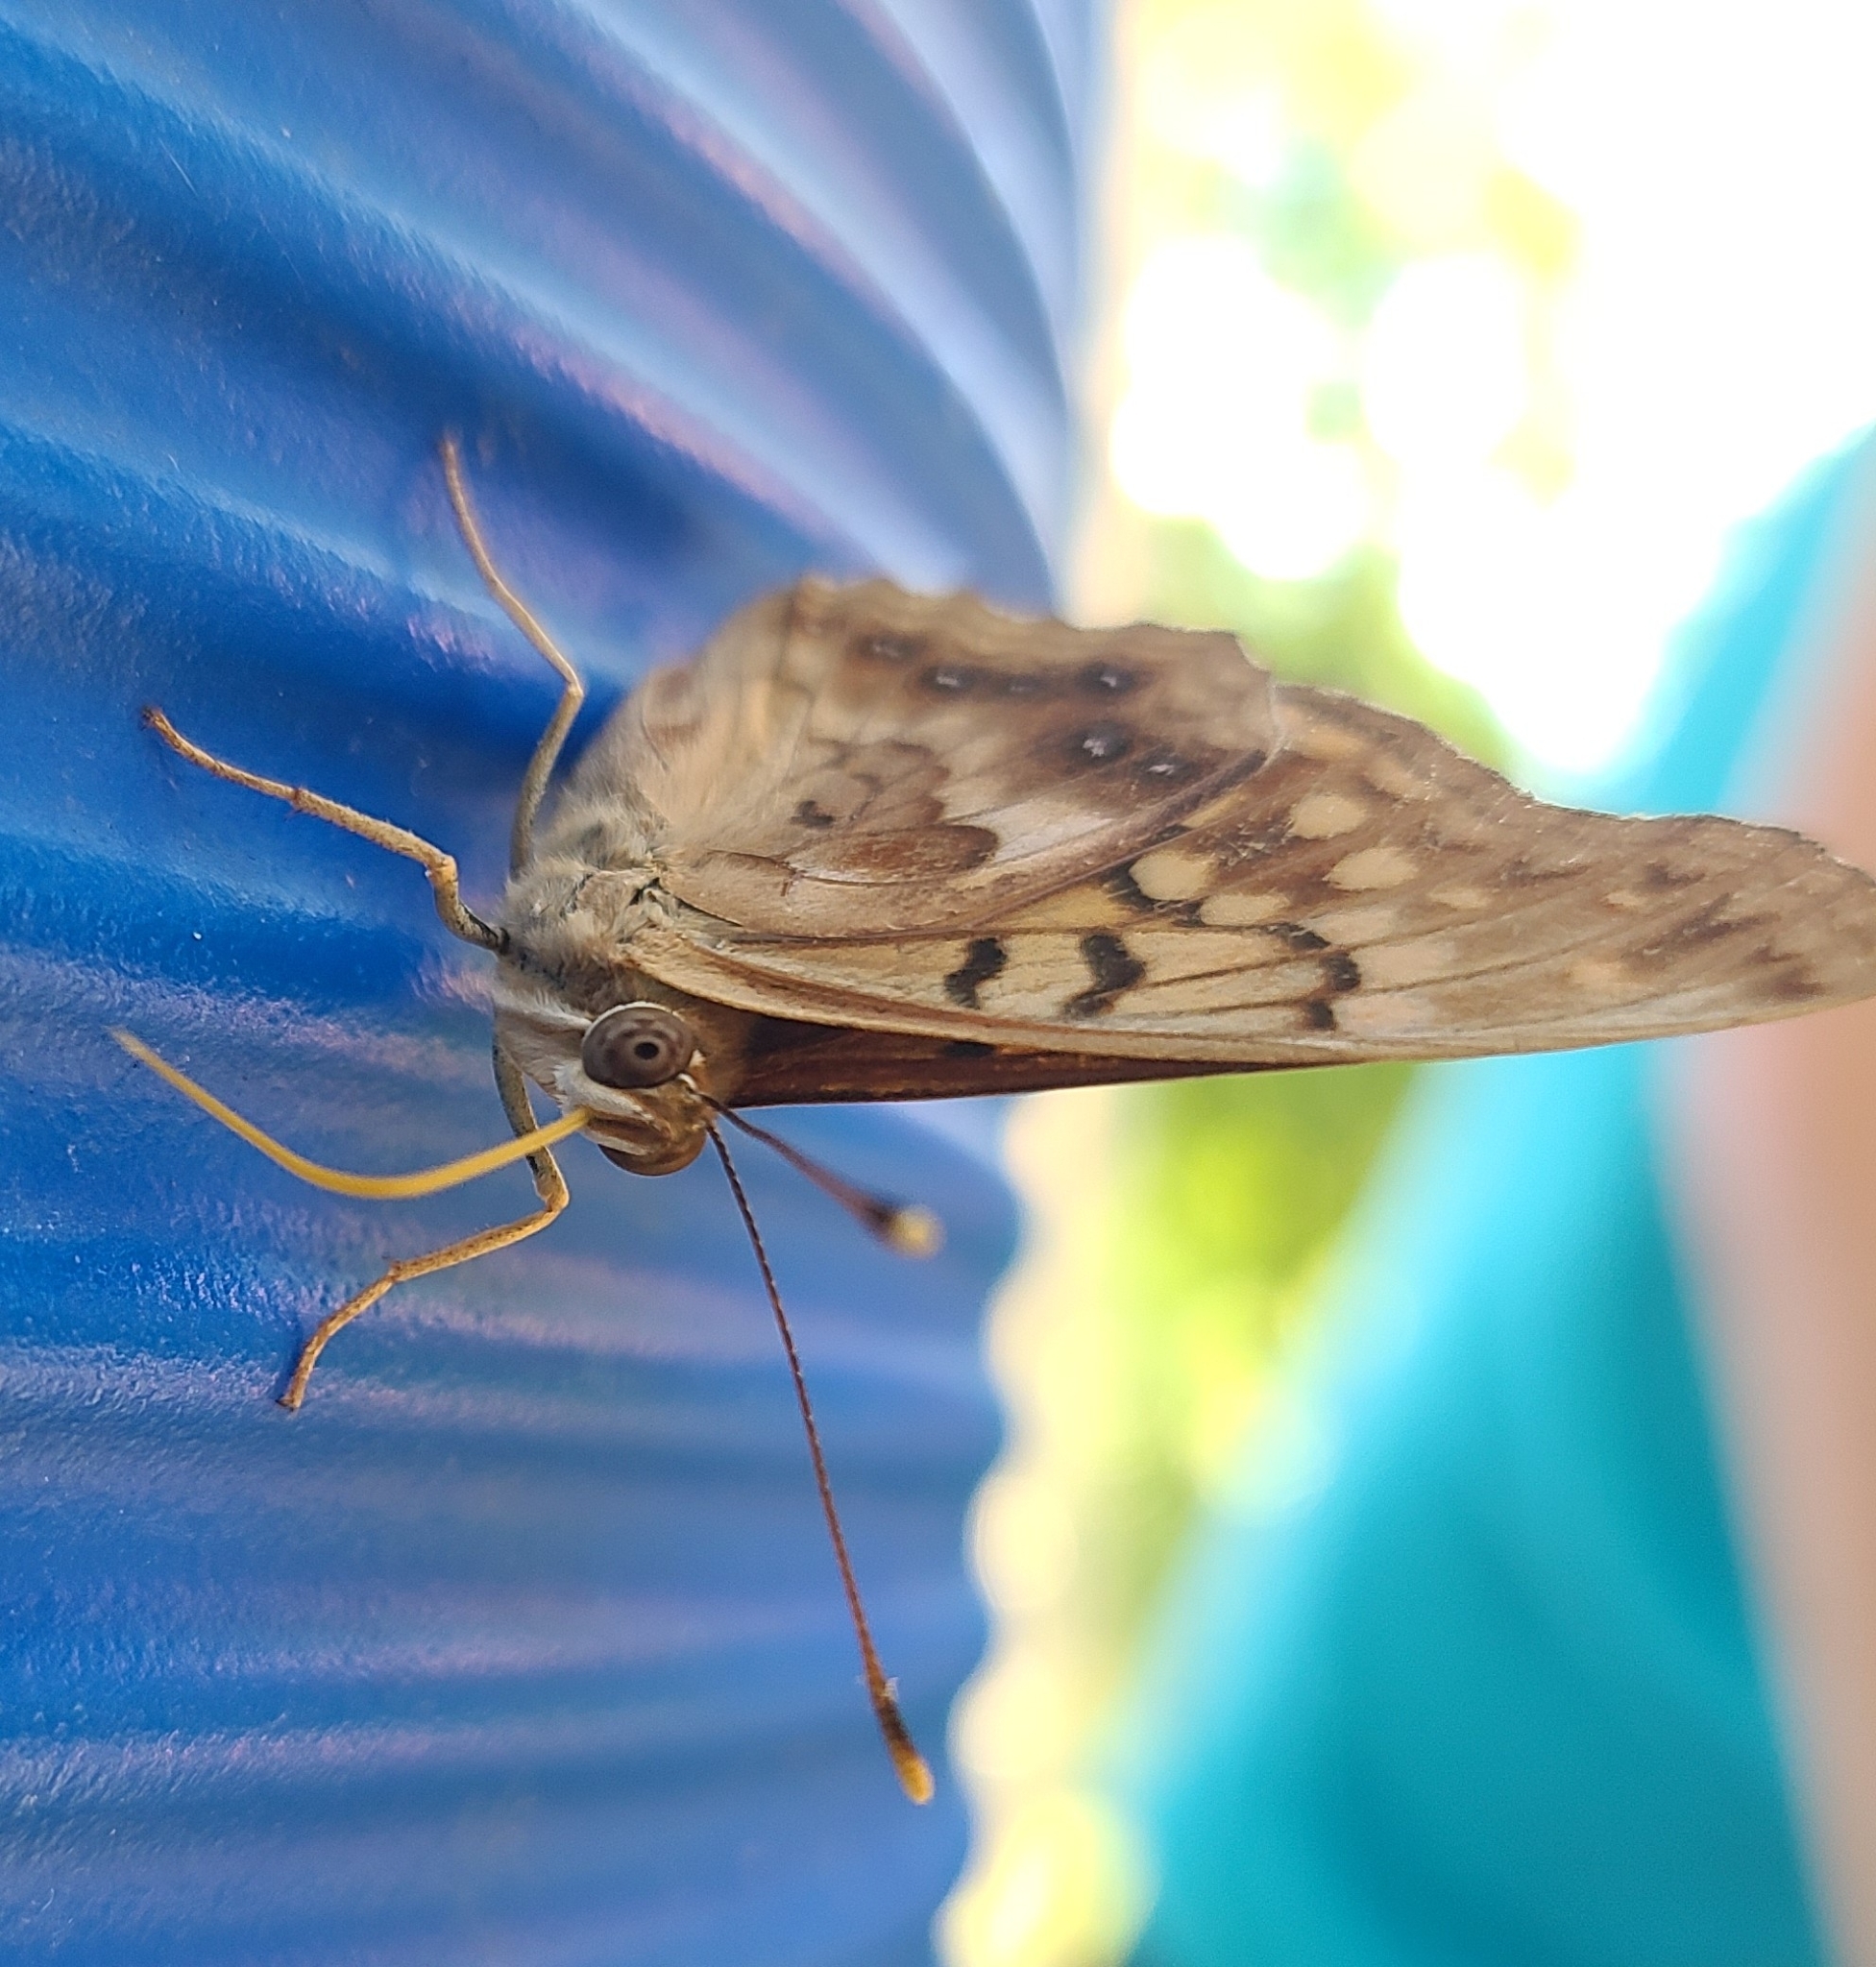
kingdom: Animalia
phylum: Arthropoda
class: Insecta
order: Lepidoptera
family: Nymphalidae
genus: Asterocampa
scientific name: Asterocampa clyton
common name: Tawny emperor
